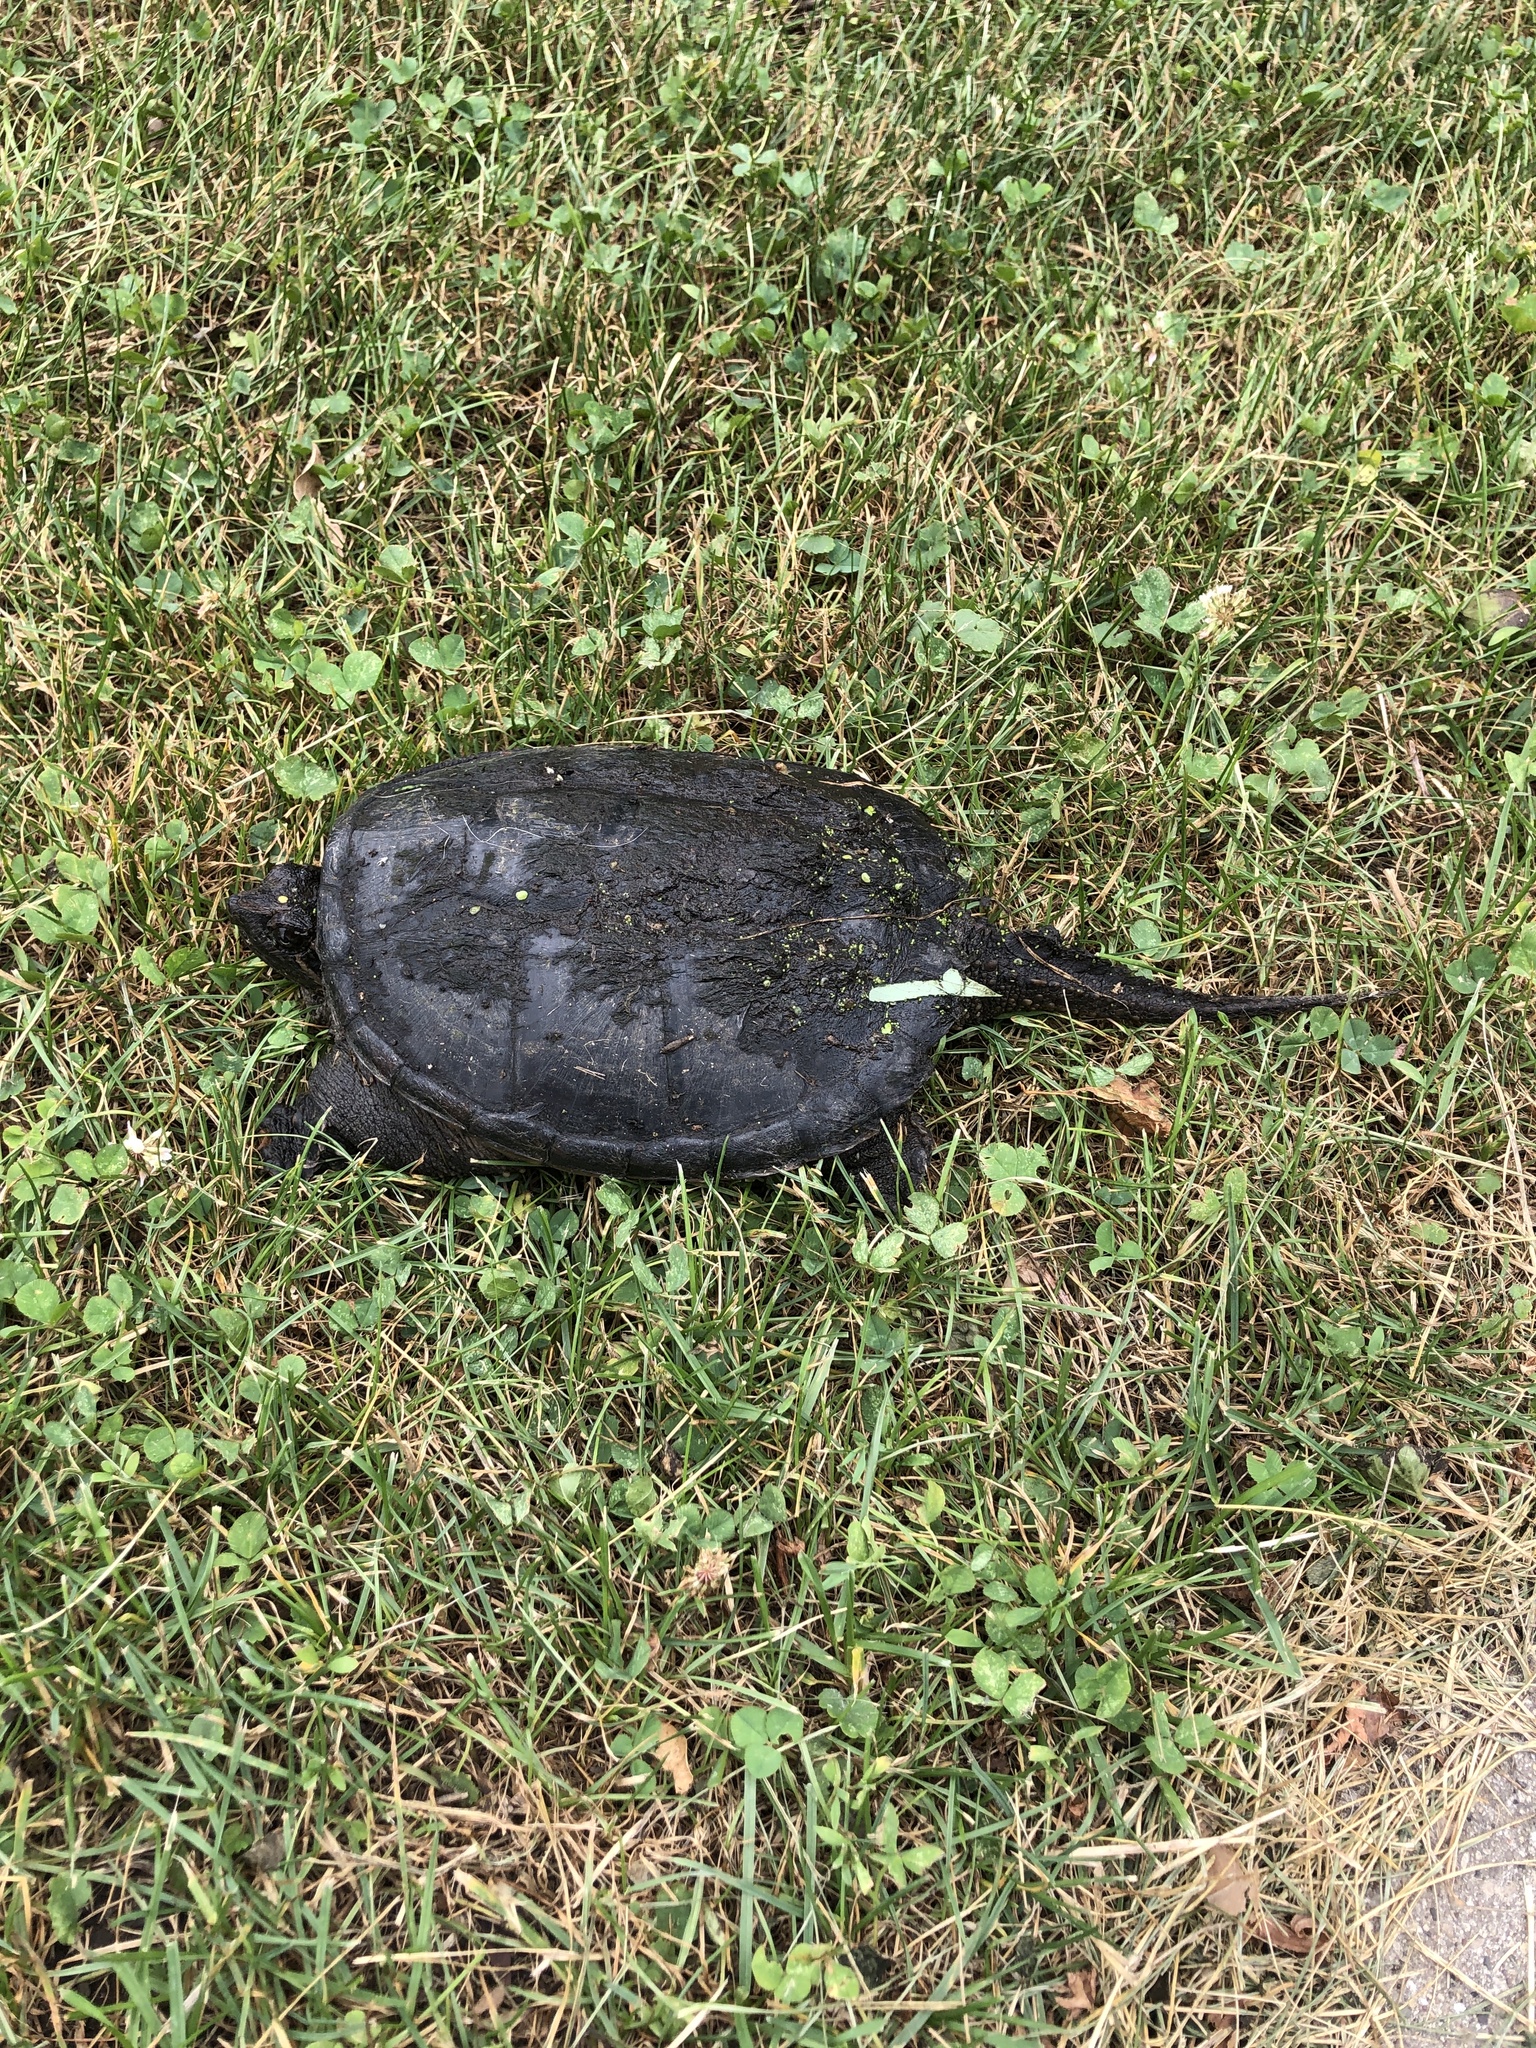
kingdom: Animalia
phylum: Chordata
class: Testudines
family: Chelydridae
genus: Chelydra
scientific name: Chelydra serpentina
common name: Common snapping turtle
